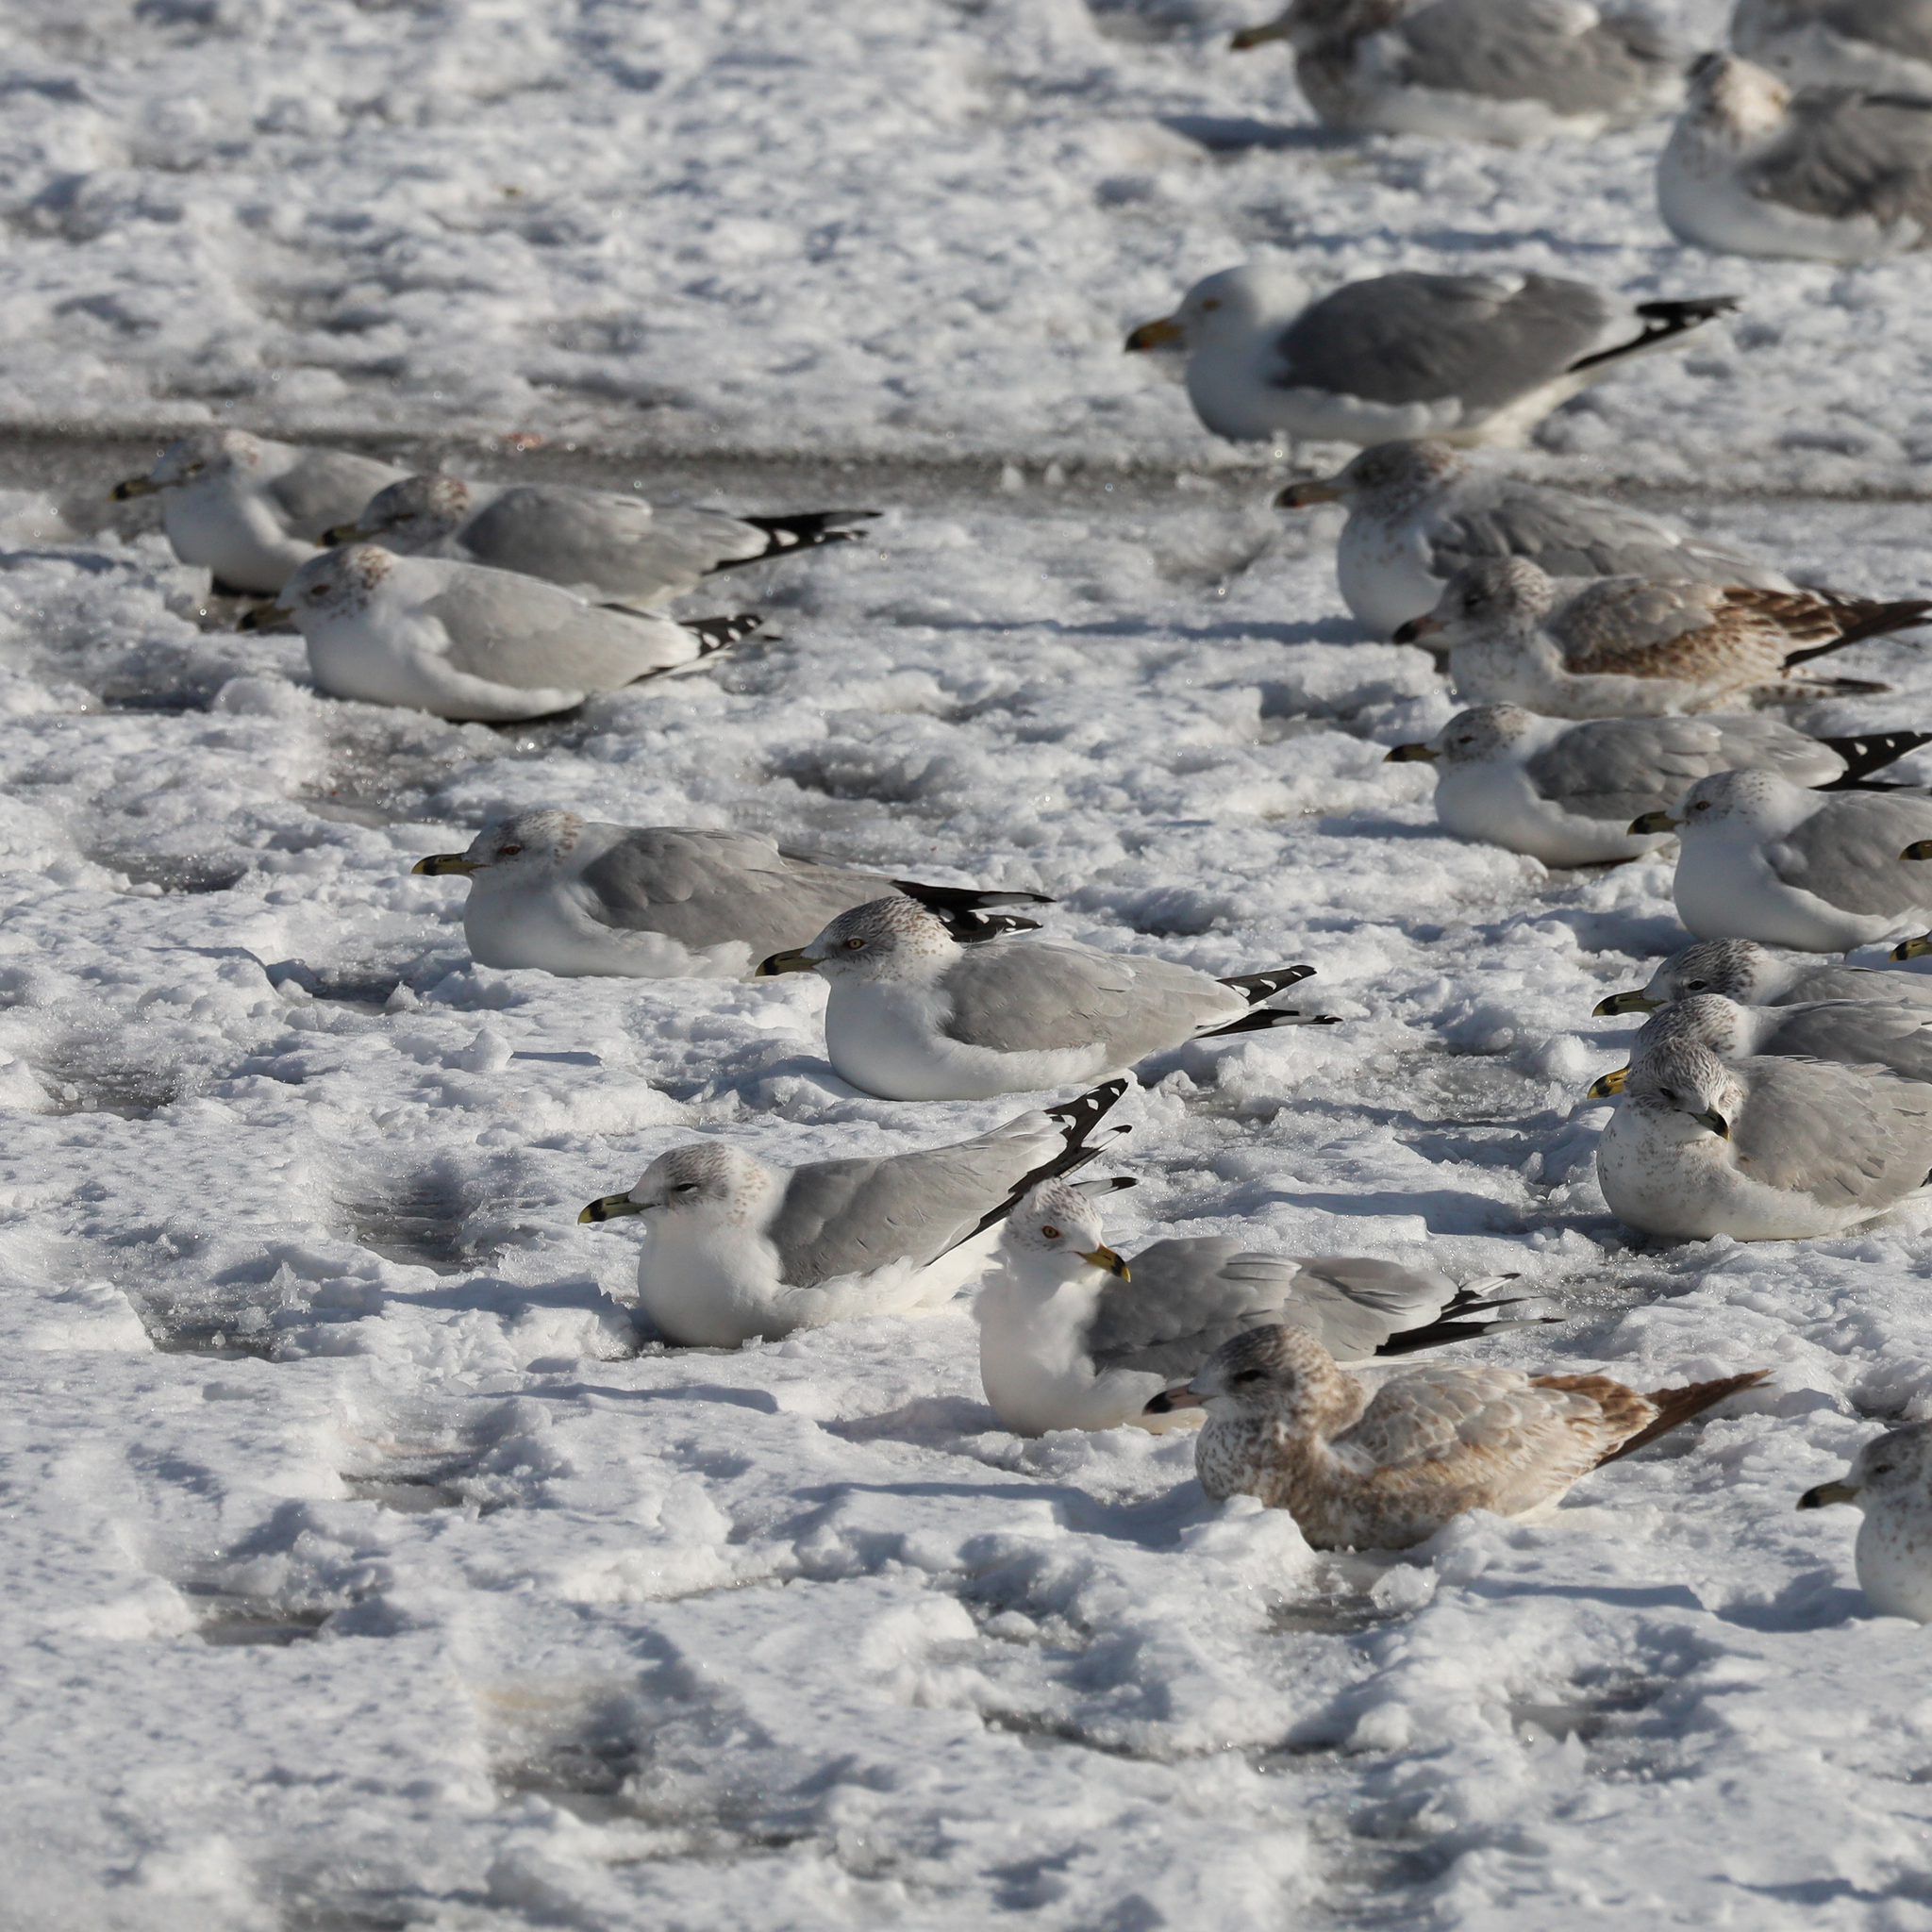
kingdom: Animalia
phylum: Chordata
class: Aves
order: Charadriiformes
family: Laridae
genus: Larus
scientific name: Larus delawarensis
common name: Ring-billed gull
